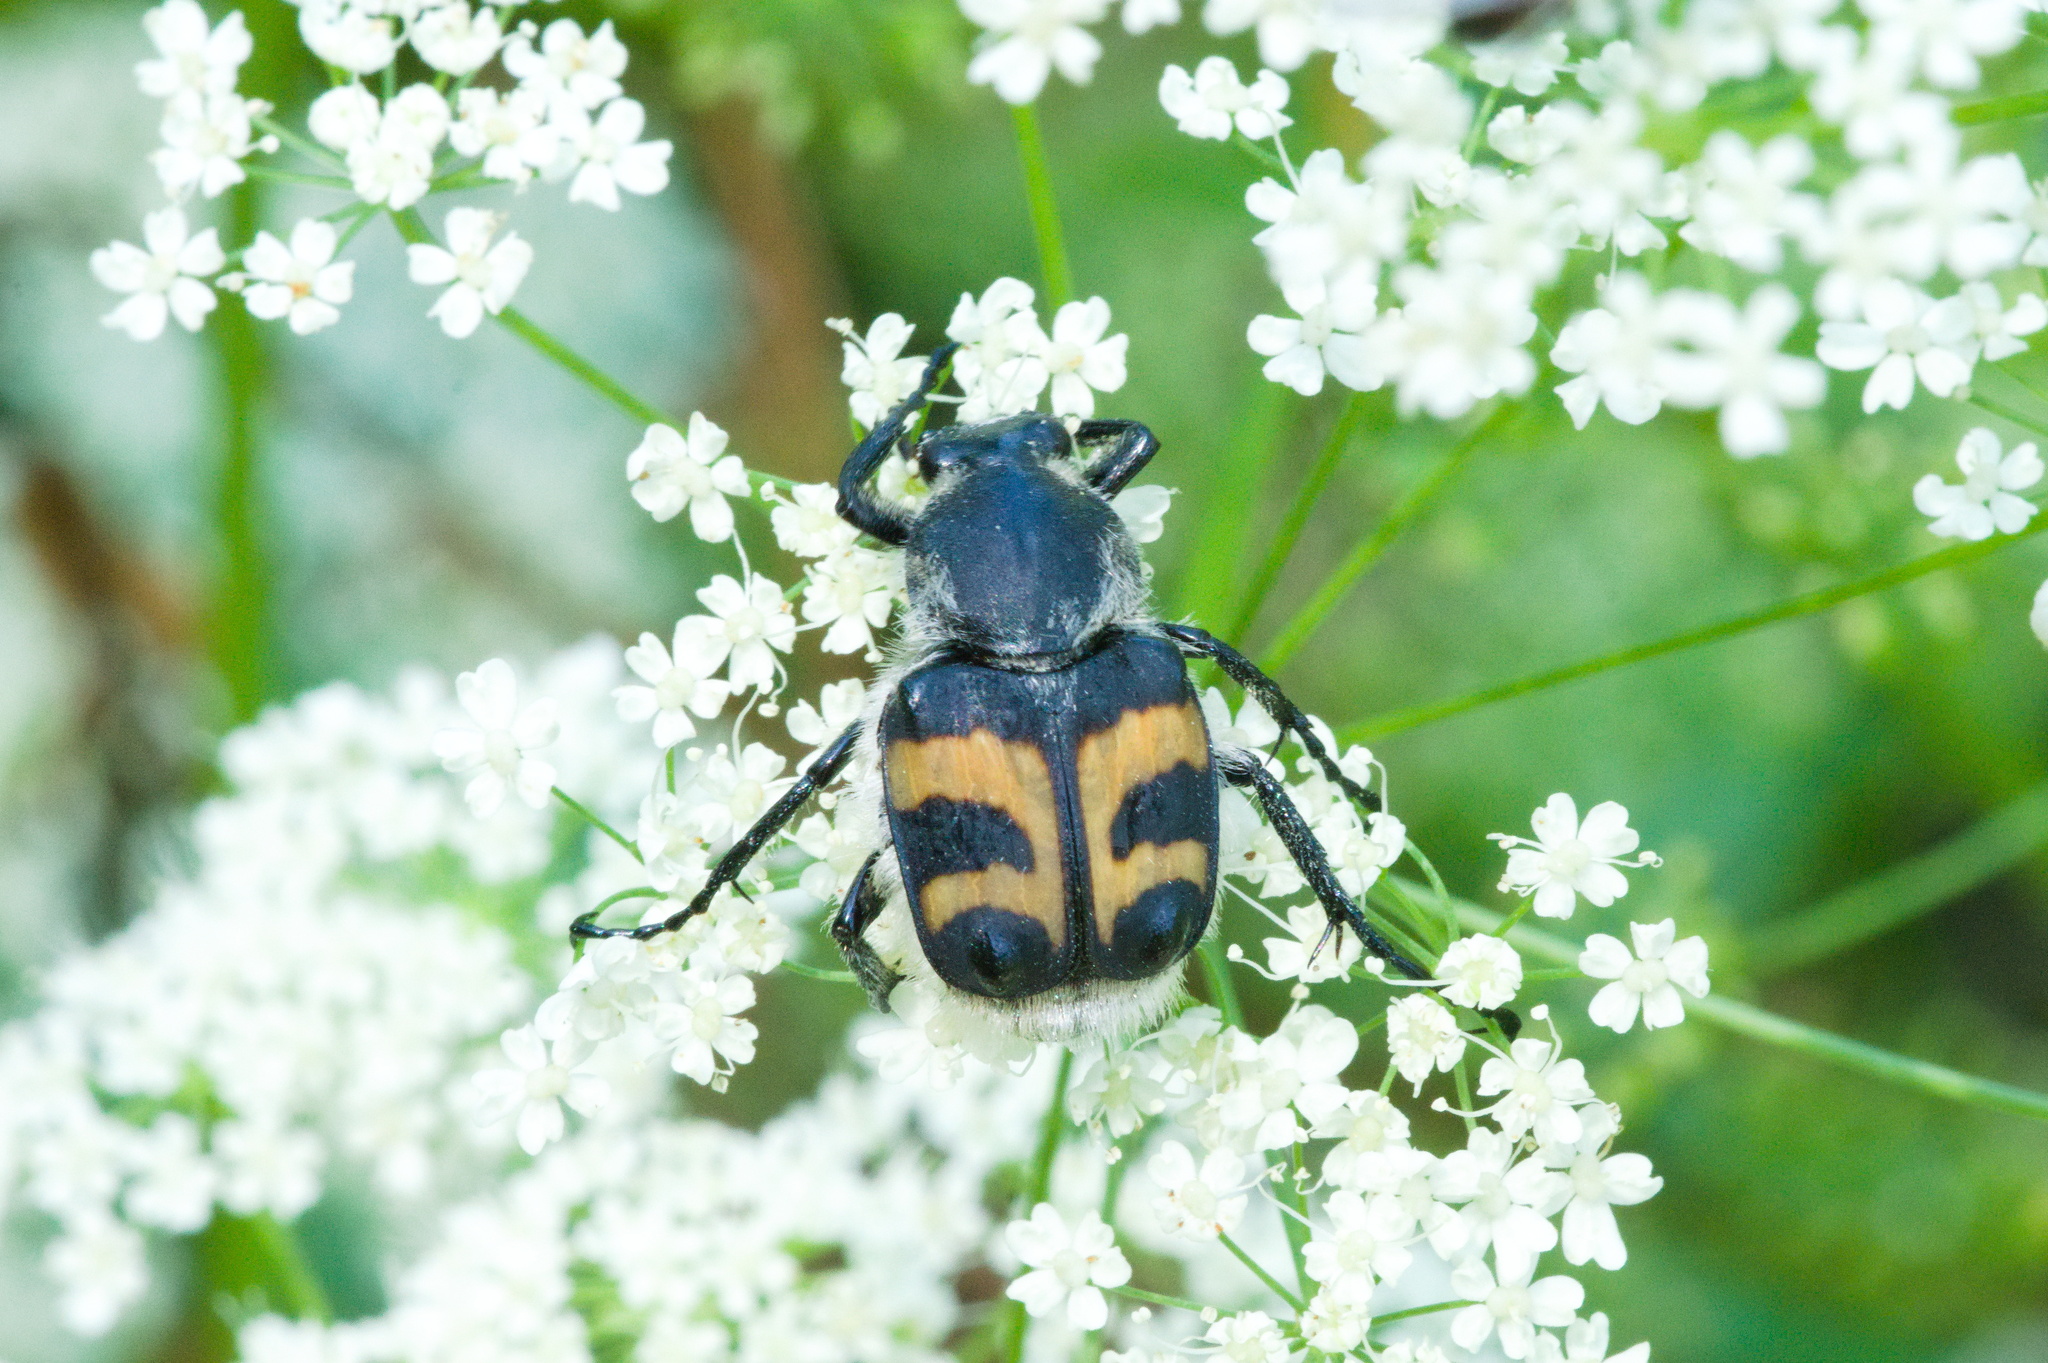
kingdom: Animalia
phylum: Arthropoda
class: Insecta
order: Coleoptera
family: Scarabaeidae
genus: Trichius
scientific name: Trichius fasciatus
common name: Bee beetle
